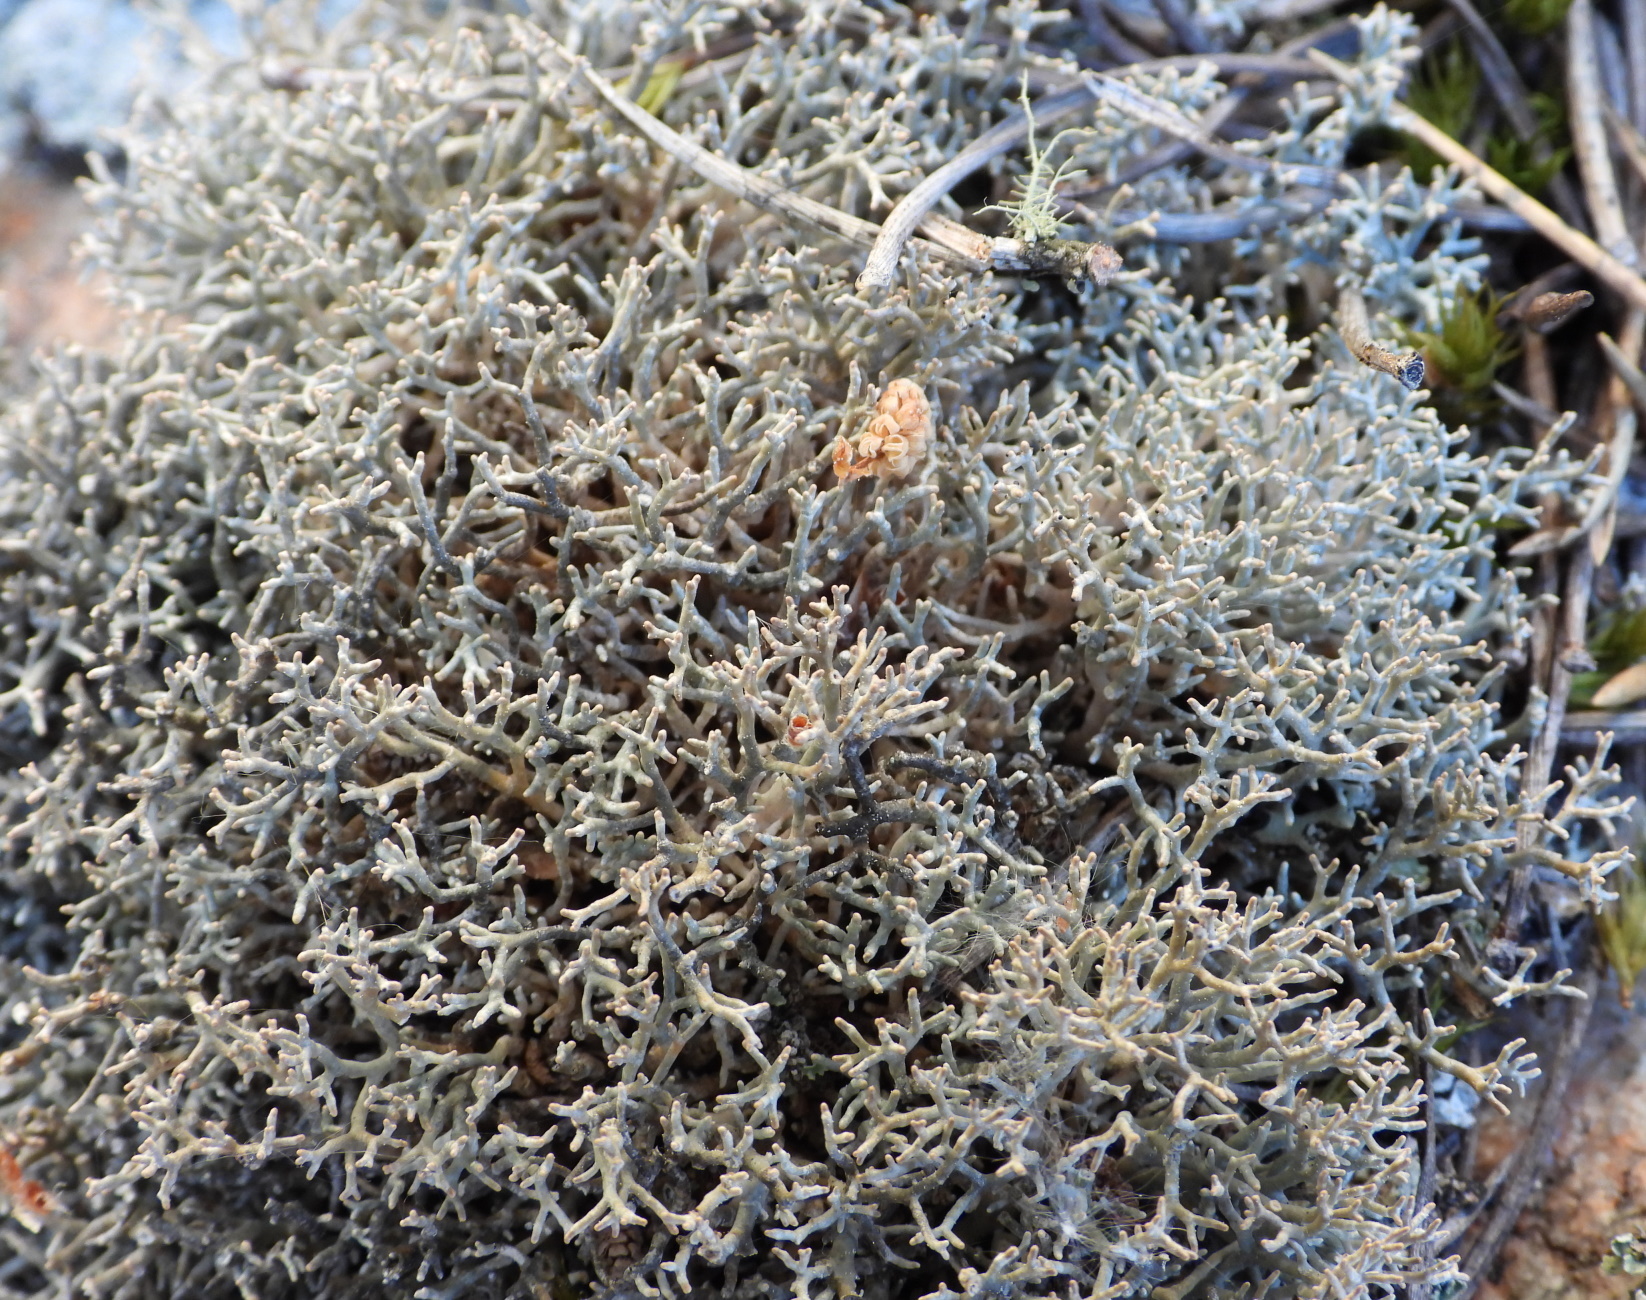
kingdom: Fungi
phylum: Ascomycota
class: Lecanoromycetes
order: Lecanorales
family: Sphaerophoraceae
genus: Sphaerophorus
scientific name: Sphaerophorus fragilis
